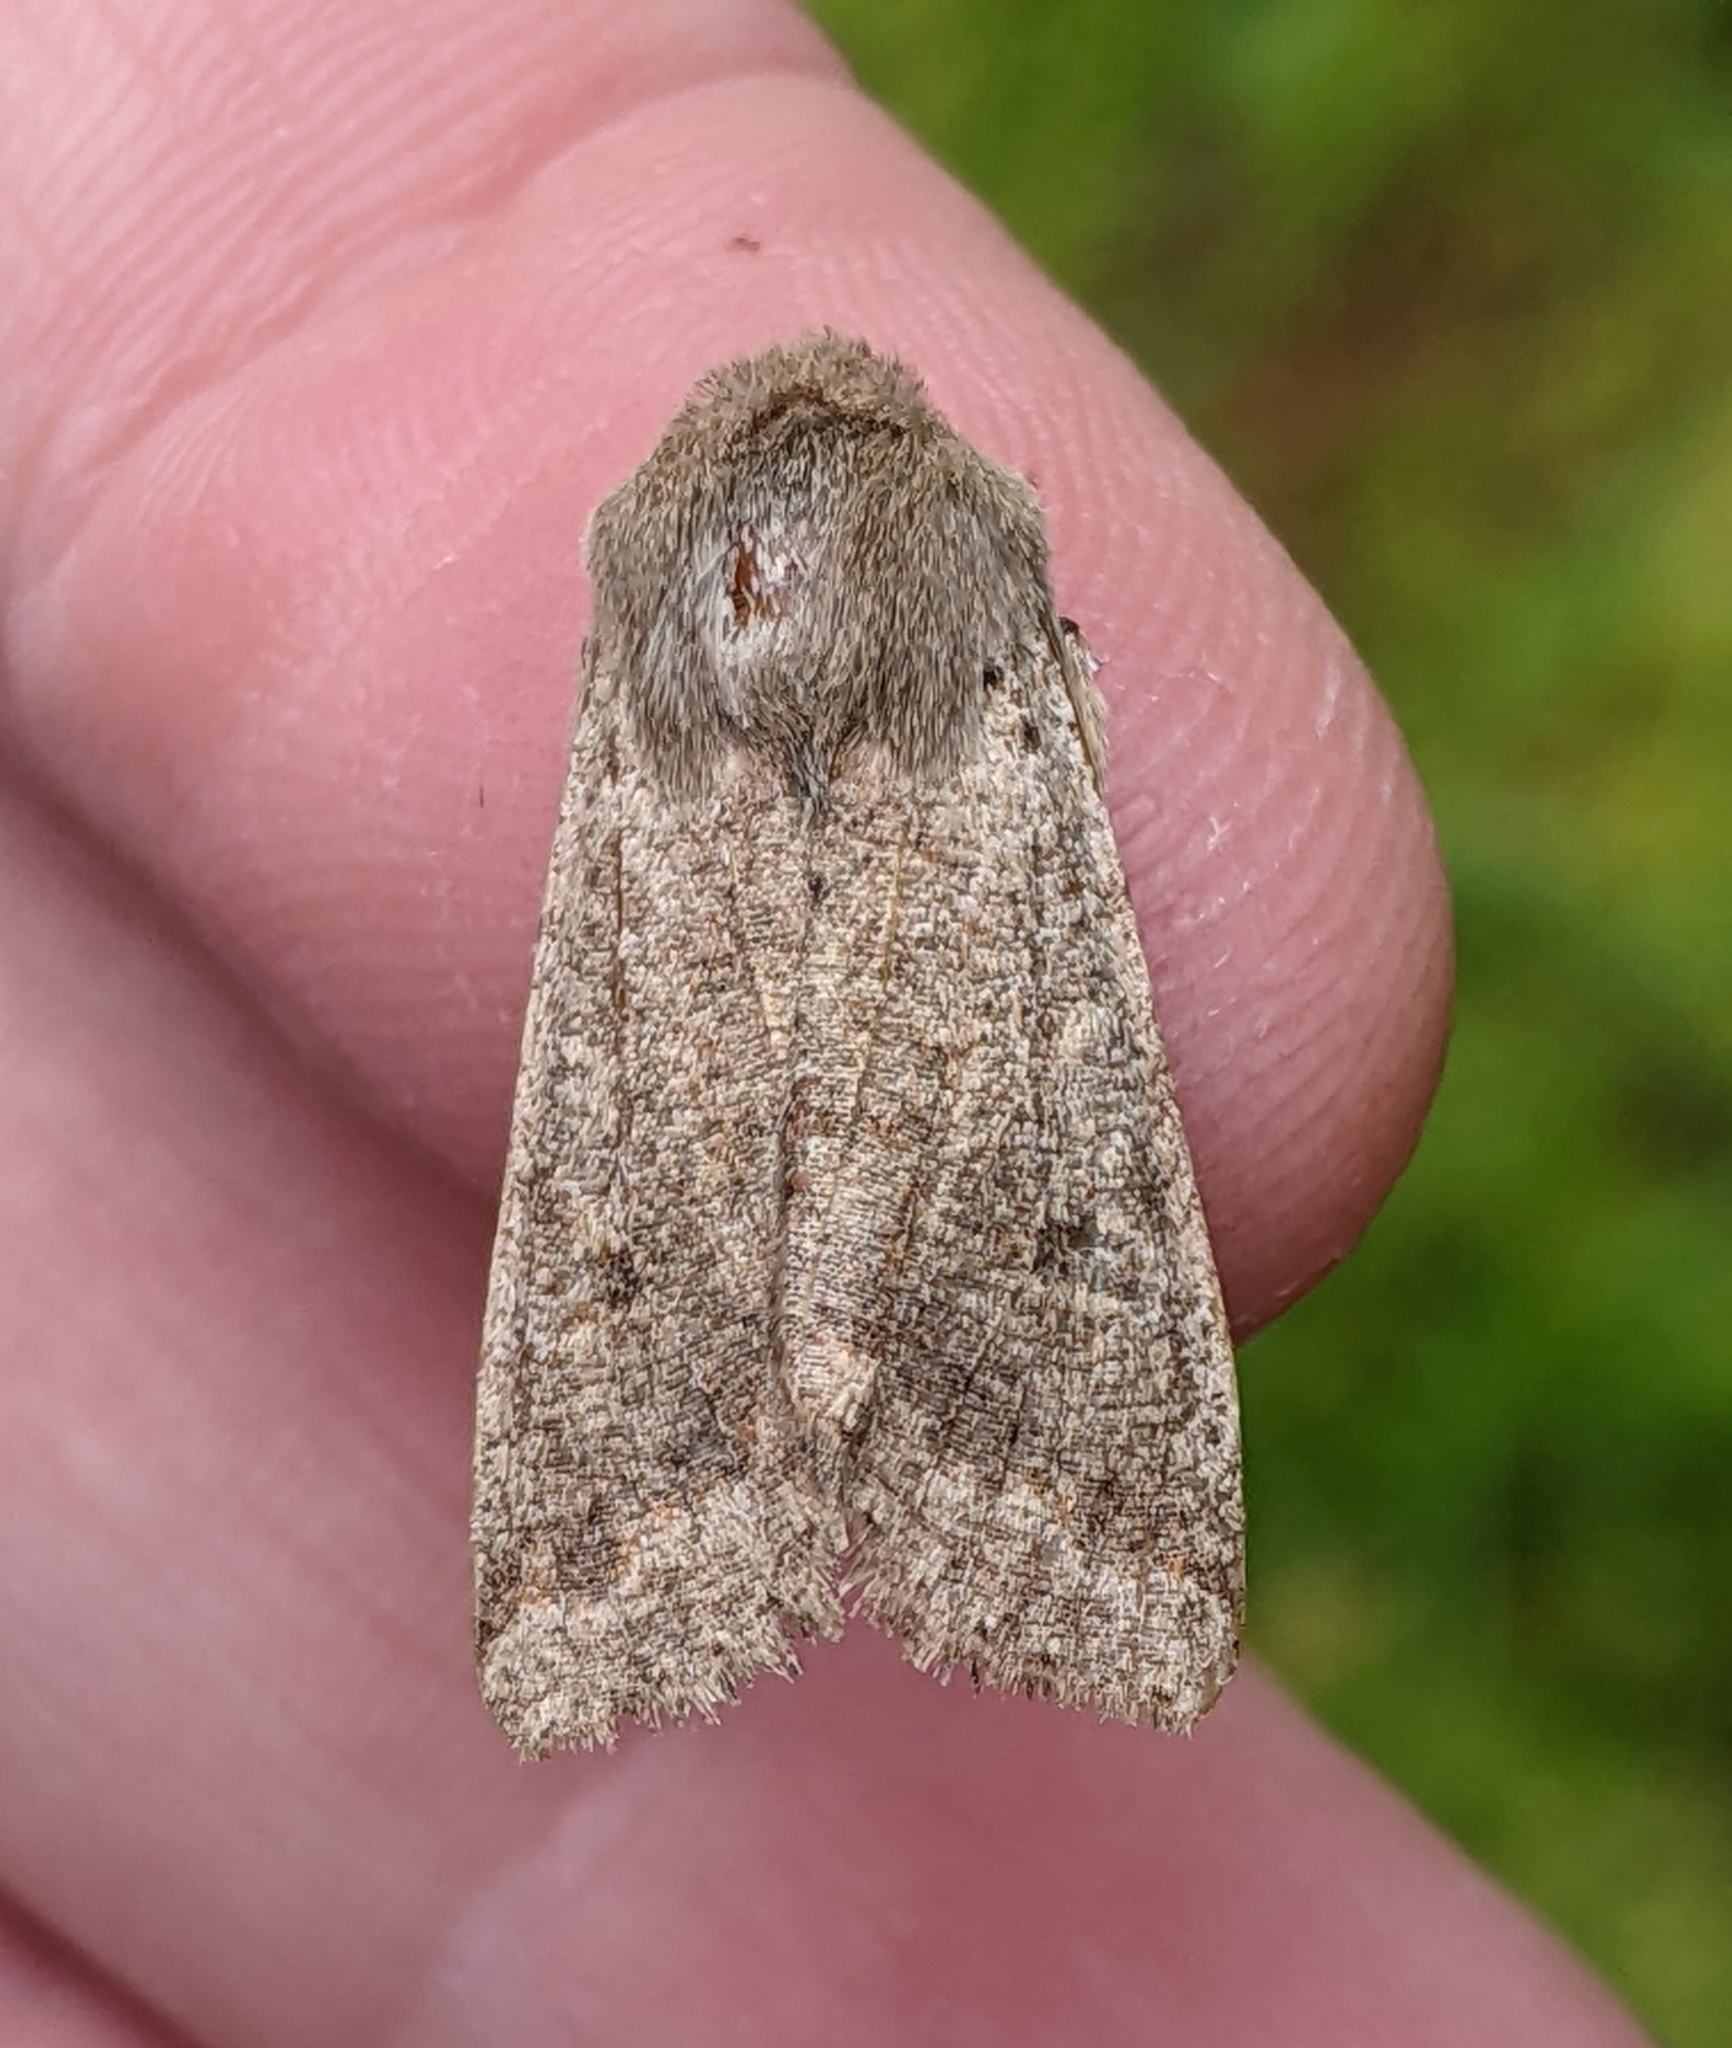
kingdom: Animalia
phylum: Arthropoda
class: Insecta
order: Lepidoptera
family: Noctuidae
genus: Orthosia
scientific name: Orthosia pacifica
